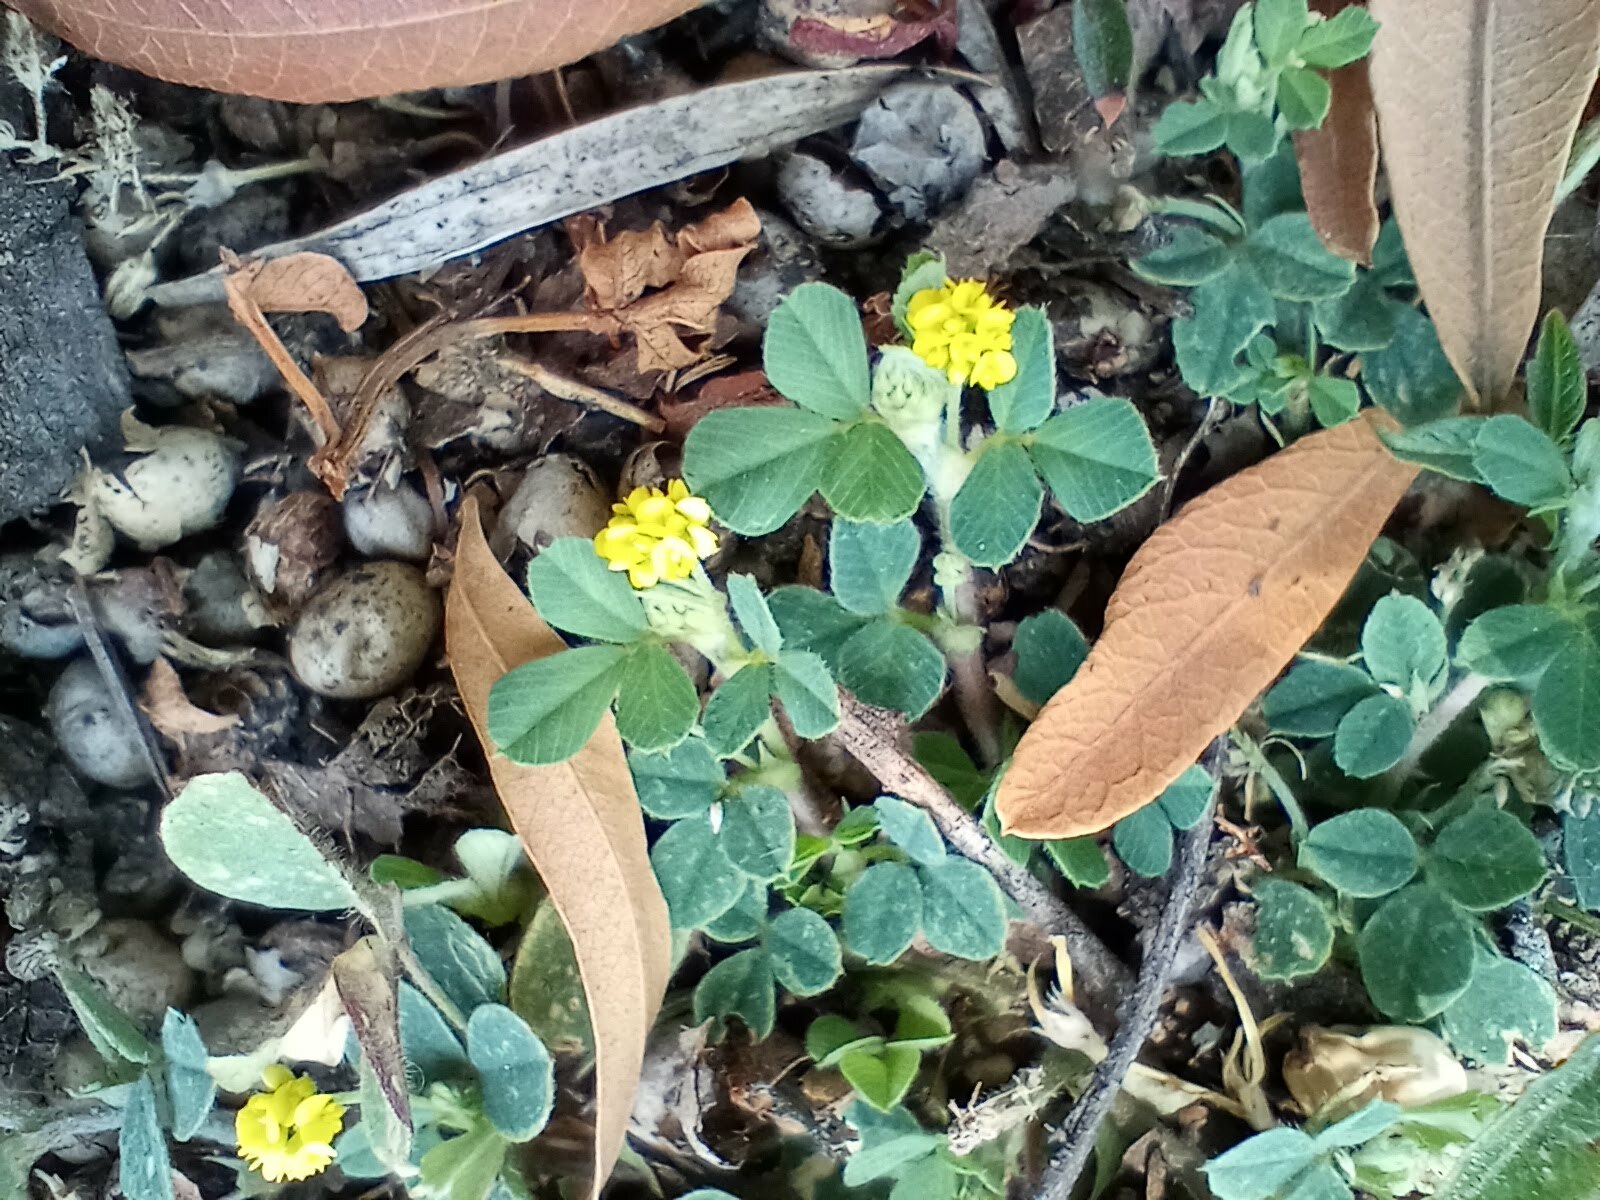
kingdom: Plantae
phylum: Tracheophyta
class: Magnoliopsida
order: Fabales
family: Fabaceae
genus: Medicago
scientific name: Medicago lupulina
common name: Black medick
